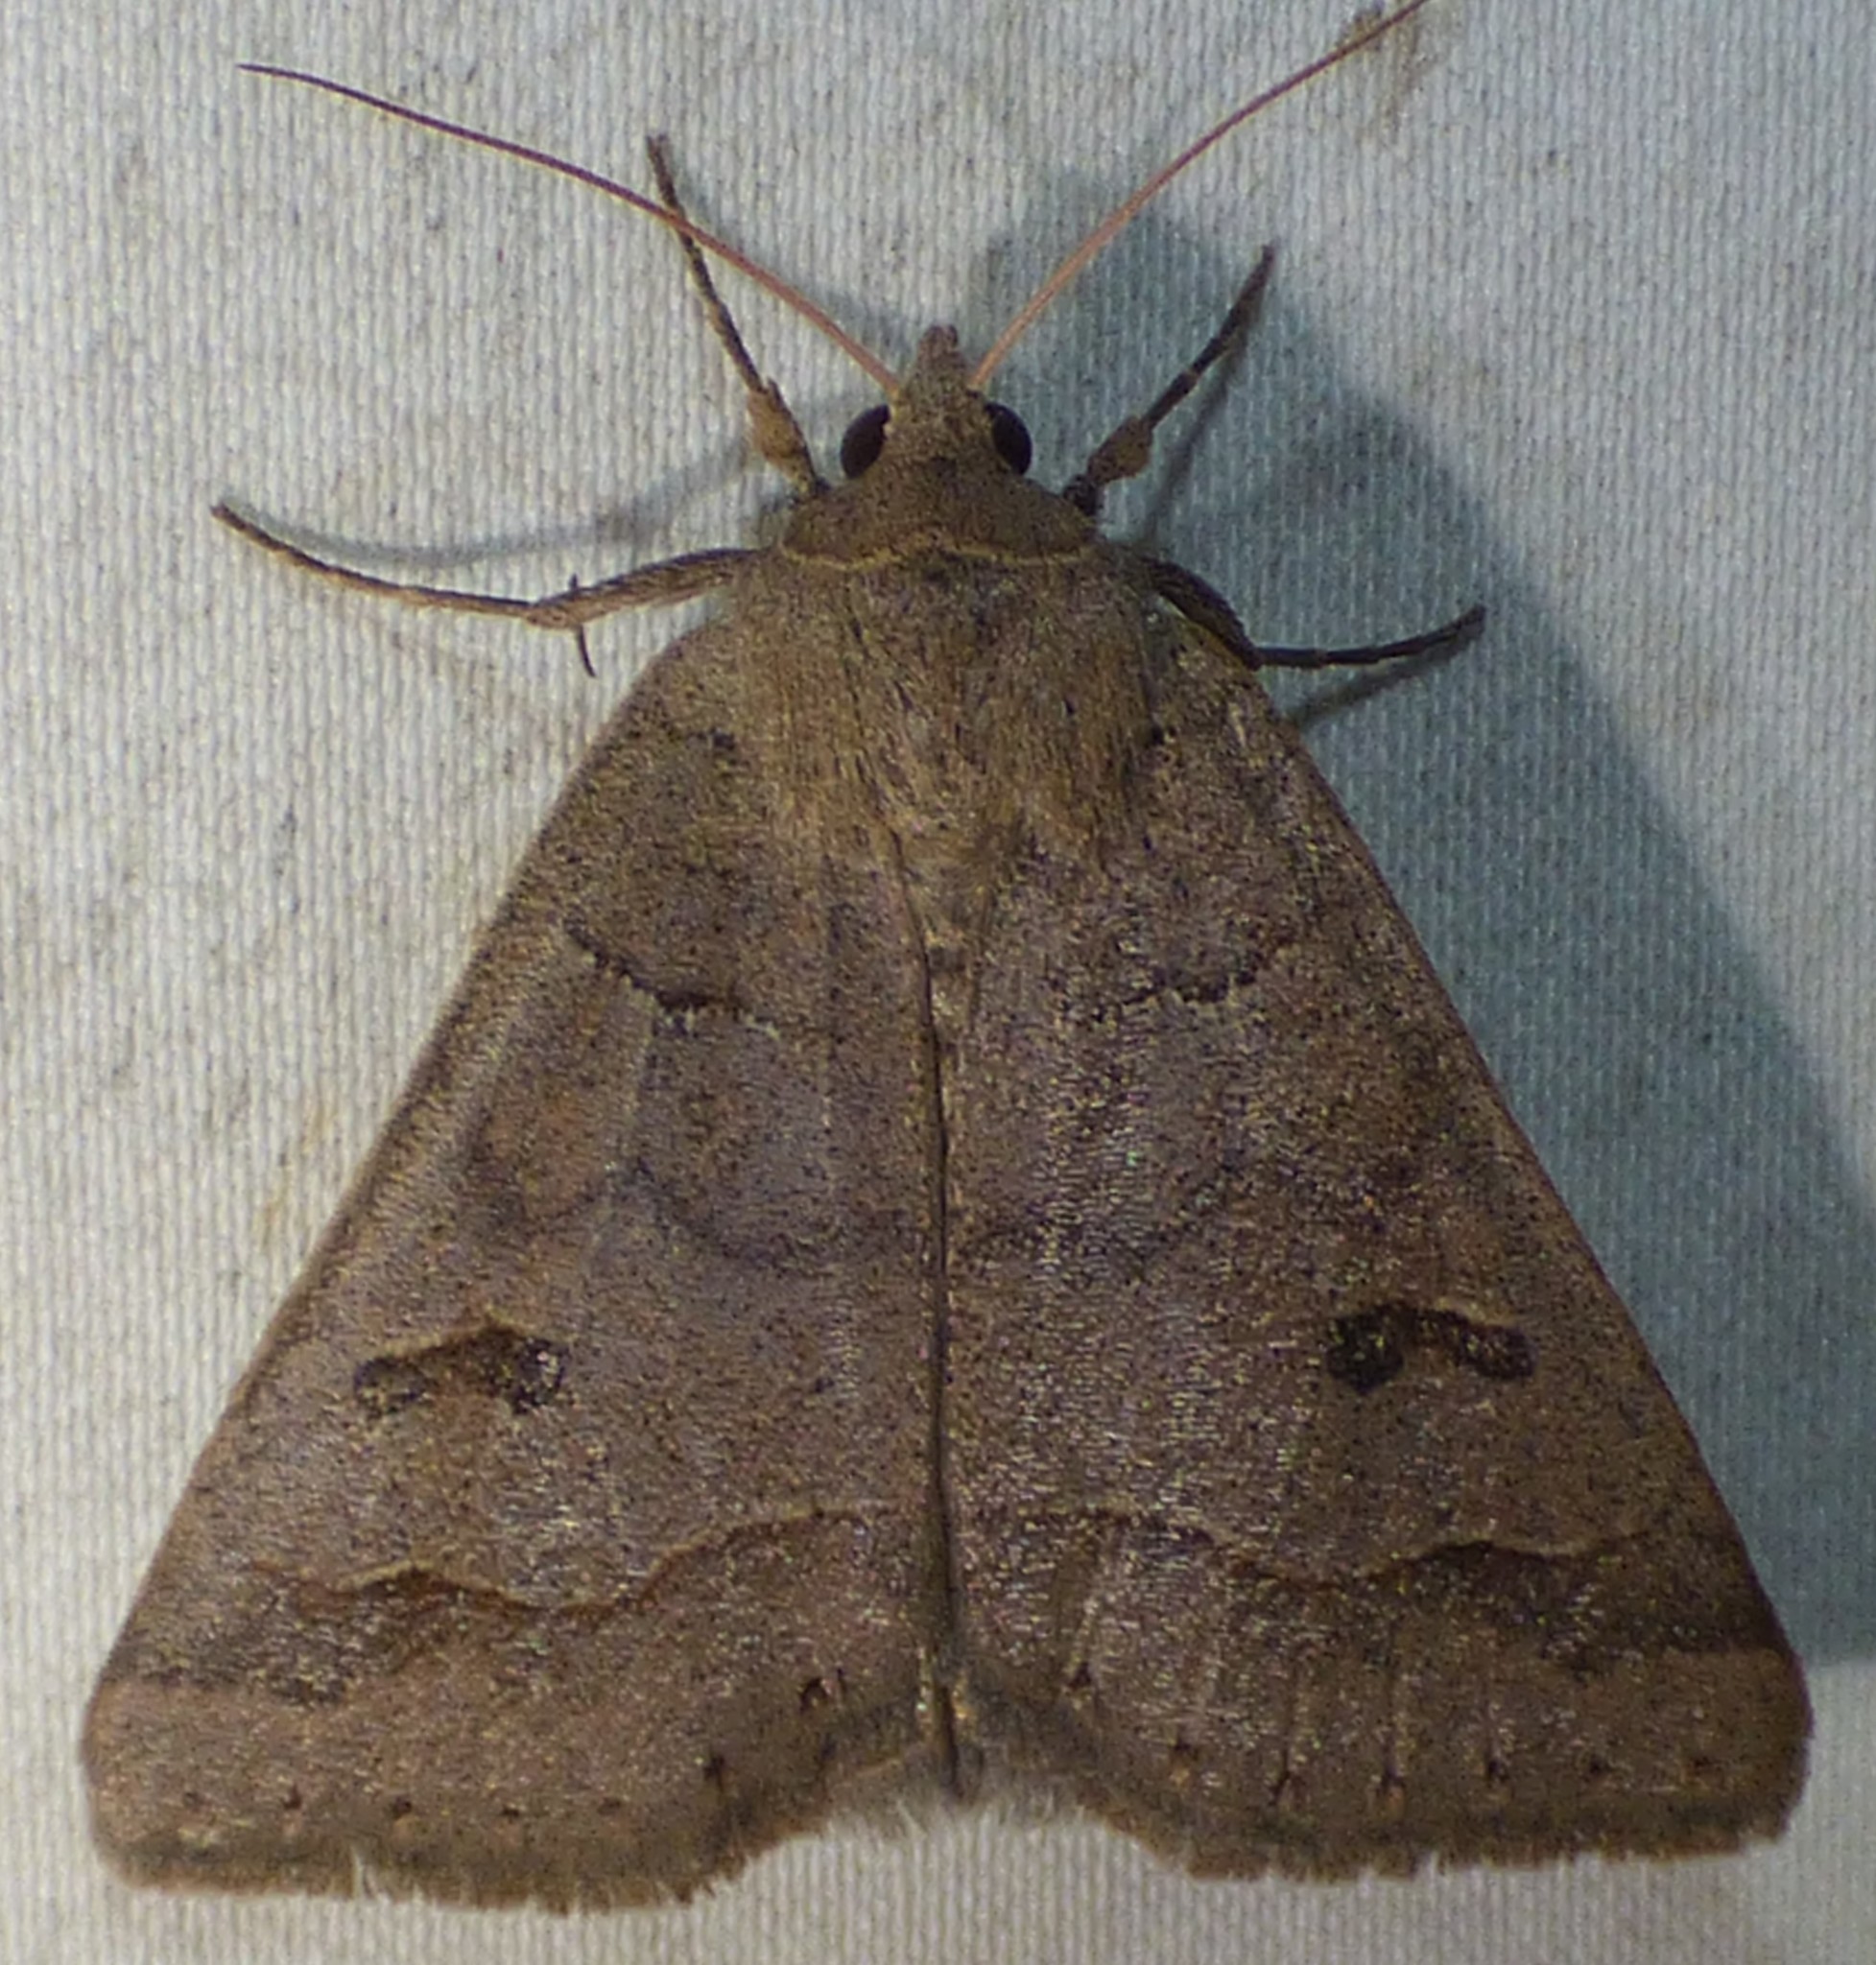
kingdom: Animalia
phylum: Arthropoda
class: Insecta
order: Lepidoptera
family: Erebidae
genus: Phoberia
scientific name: Phoberia atomaris
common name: Common oak moth
